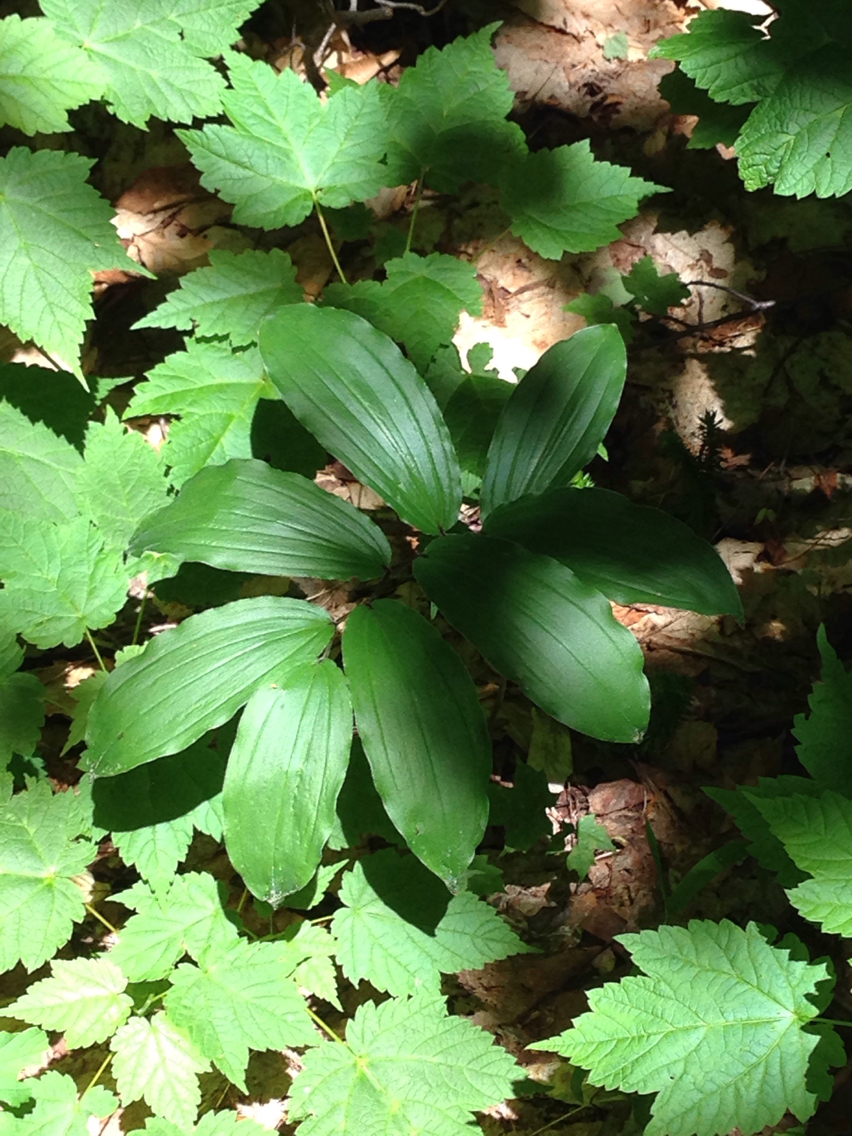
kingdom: Plantae
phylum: Tracheophyta
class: Liliopsida
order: Asparagales
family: Asparagaceae
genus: Maianthemum
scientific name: Maianthemum racemosum
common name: False spikenard
